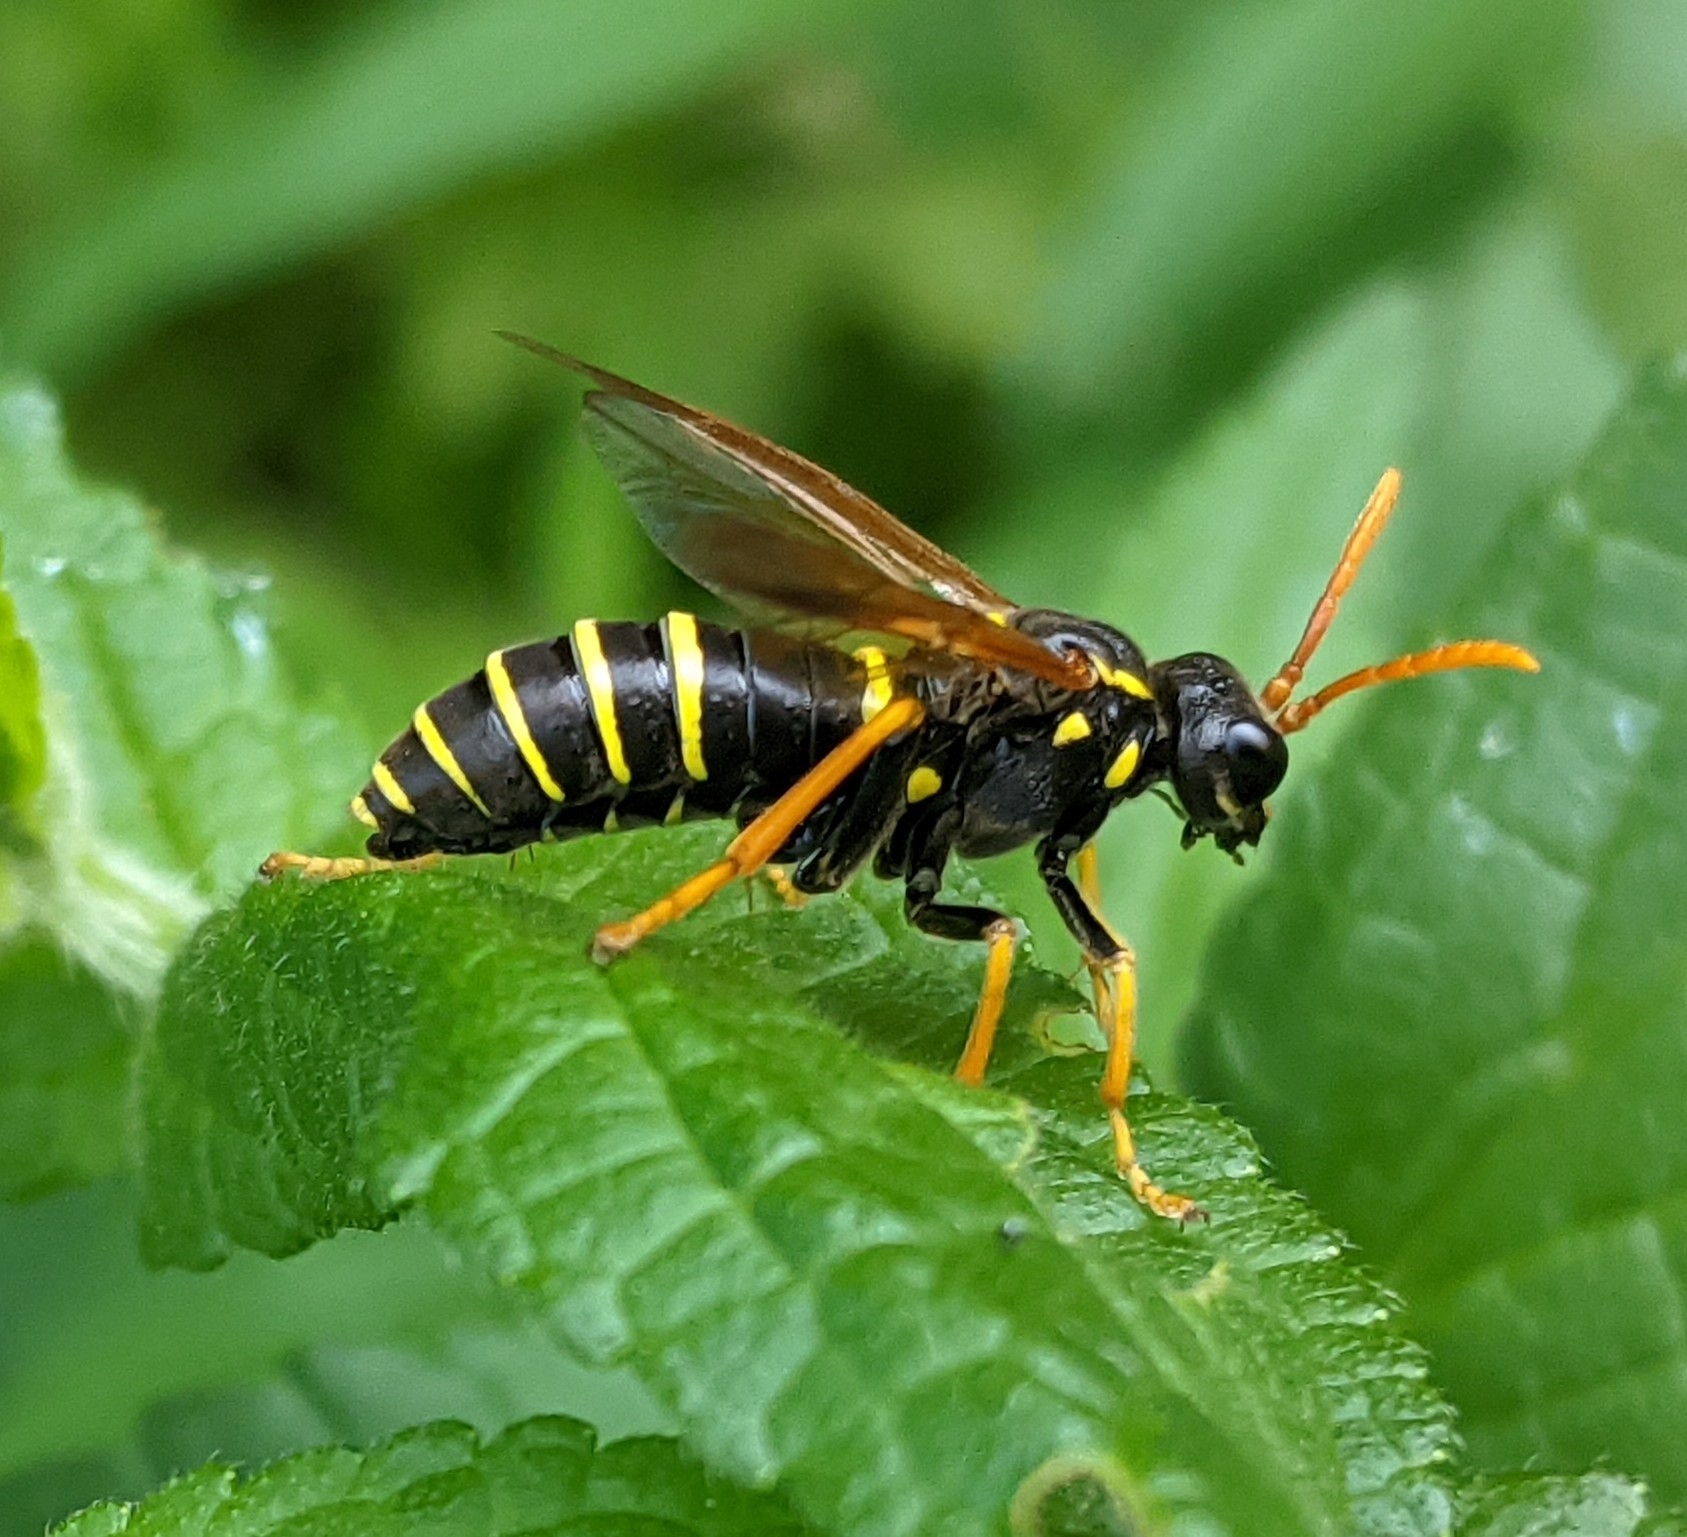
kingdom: Animalia
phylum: Arthropoda
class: Insecta
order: Hymenoptera
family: Tenthredinidae
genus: Tenthredo
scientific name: Tenthredo scrophulariae
